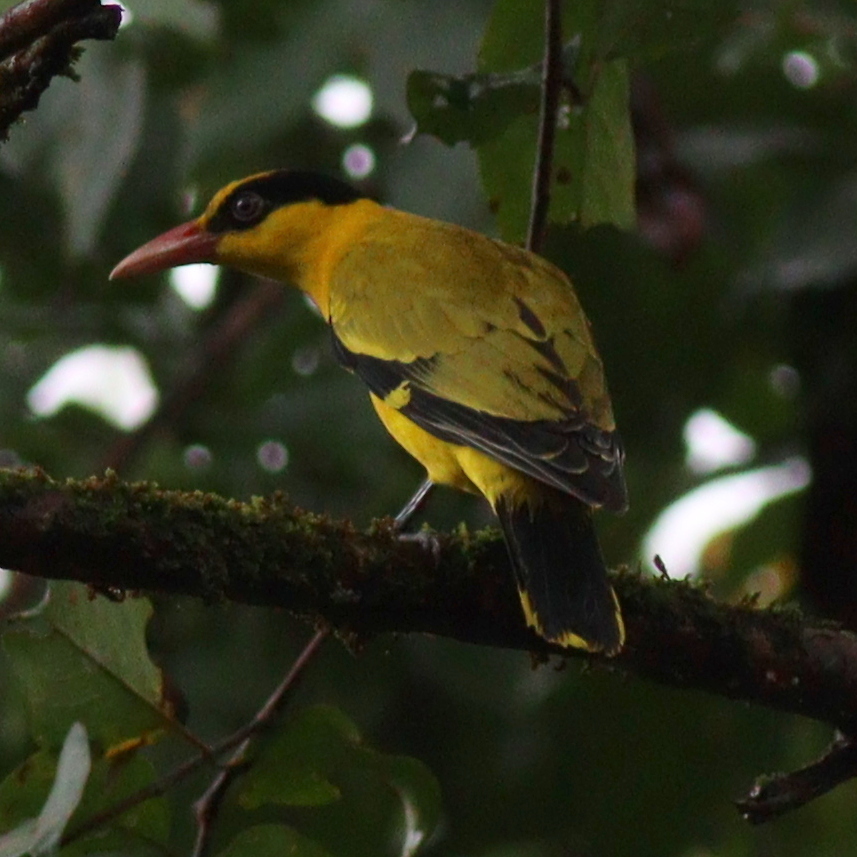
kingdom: Animalia
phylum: Chordata
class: Aves
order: Passeriformes
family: Oriolidae
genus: Oriolus
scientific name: Oriolus chinensis
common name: Black-naped oriole
